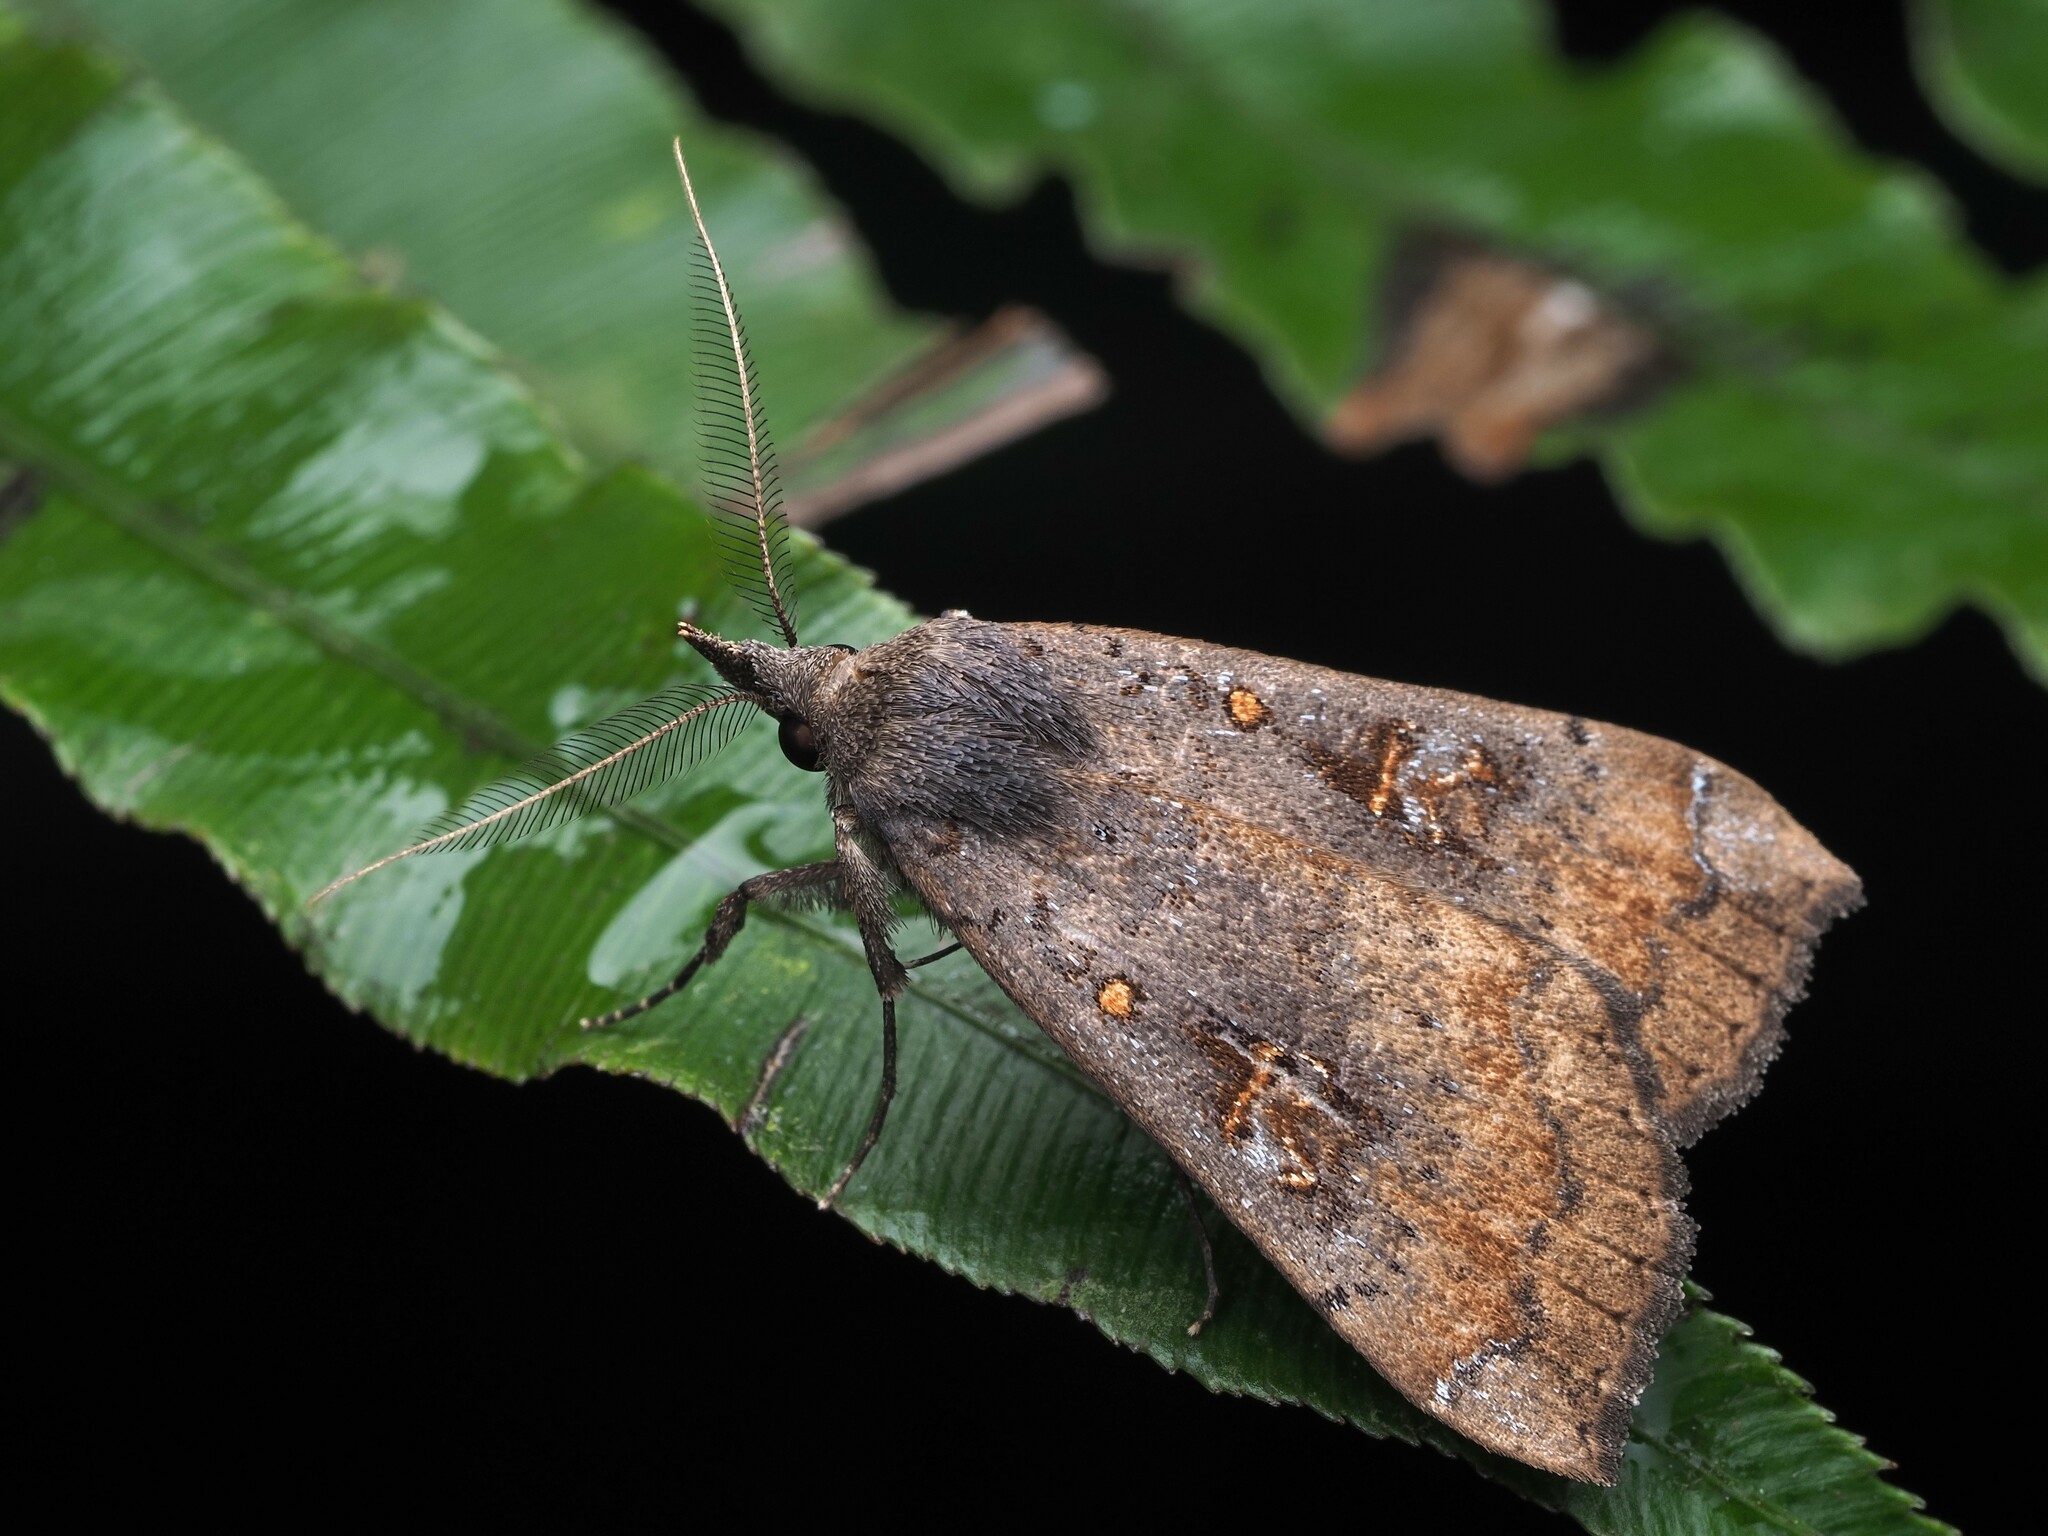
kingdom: Animalia
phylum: Arthropoda
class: Insecta
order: Lepidoptera
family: Erebidae
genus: Rhapsa
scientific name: Rhapsa scotosialis
